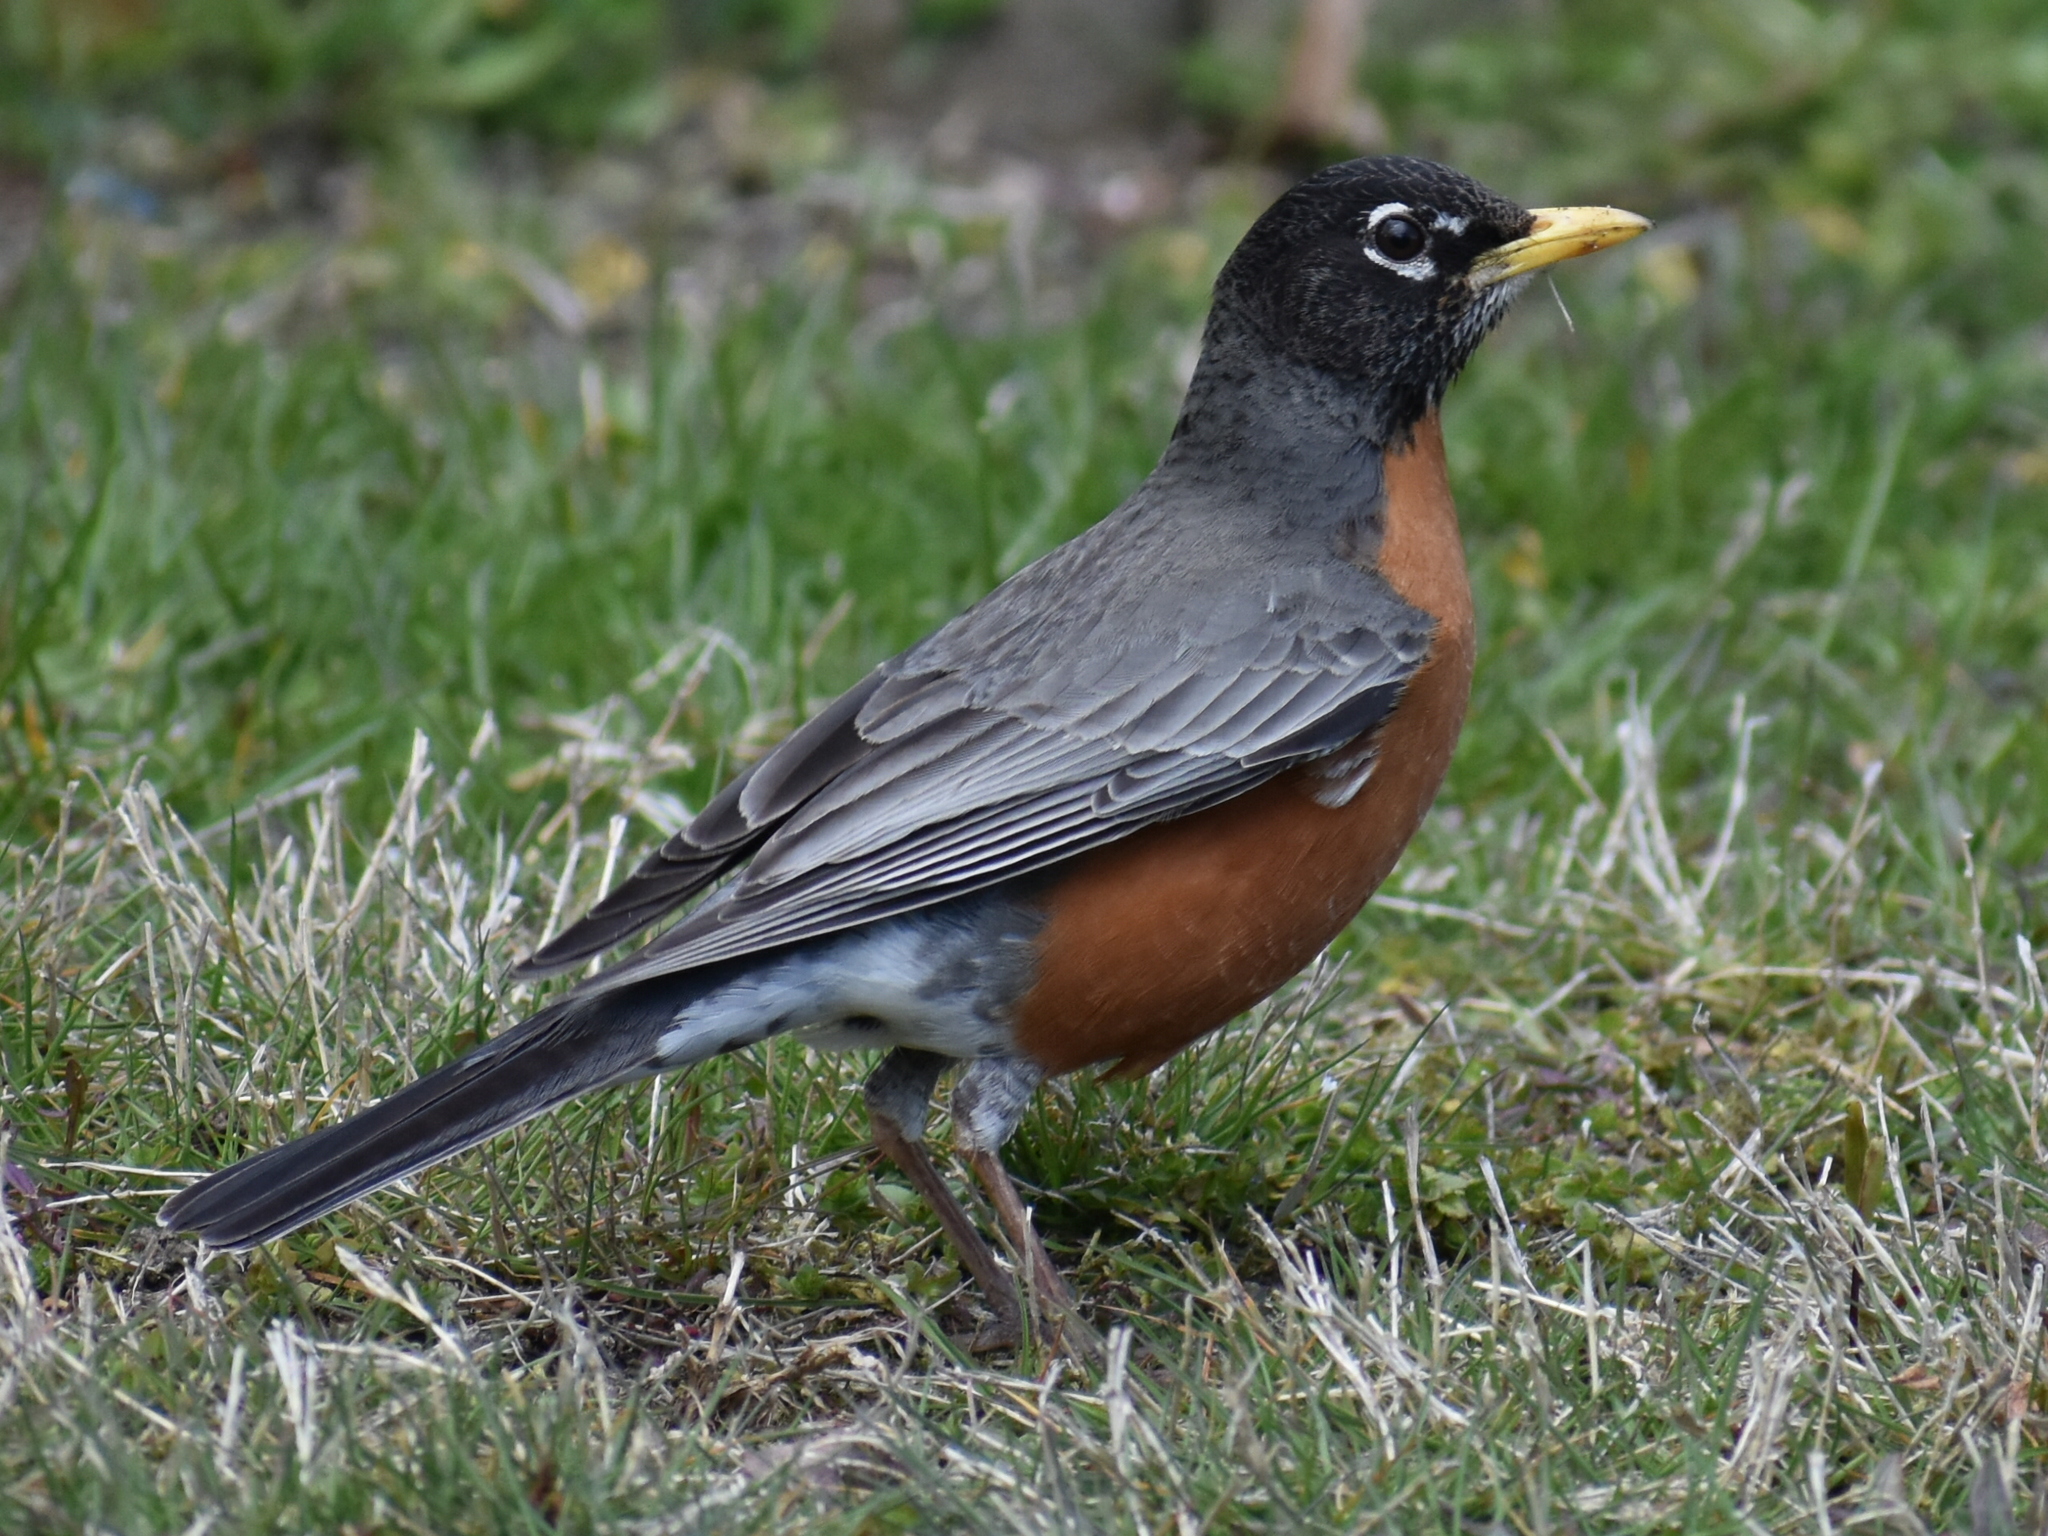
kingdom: Animalia
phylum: Chordata
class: Aves
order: Passeriformes
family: Turdidae
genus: Turdus
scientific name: Turdus migratorius
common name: American robin
